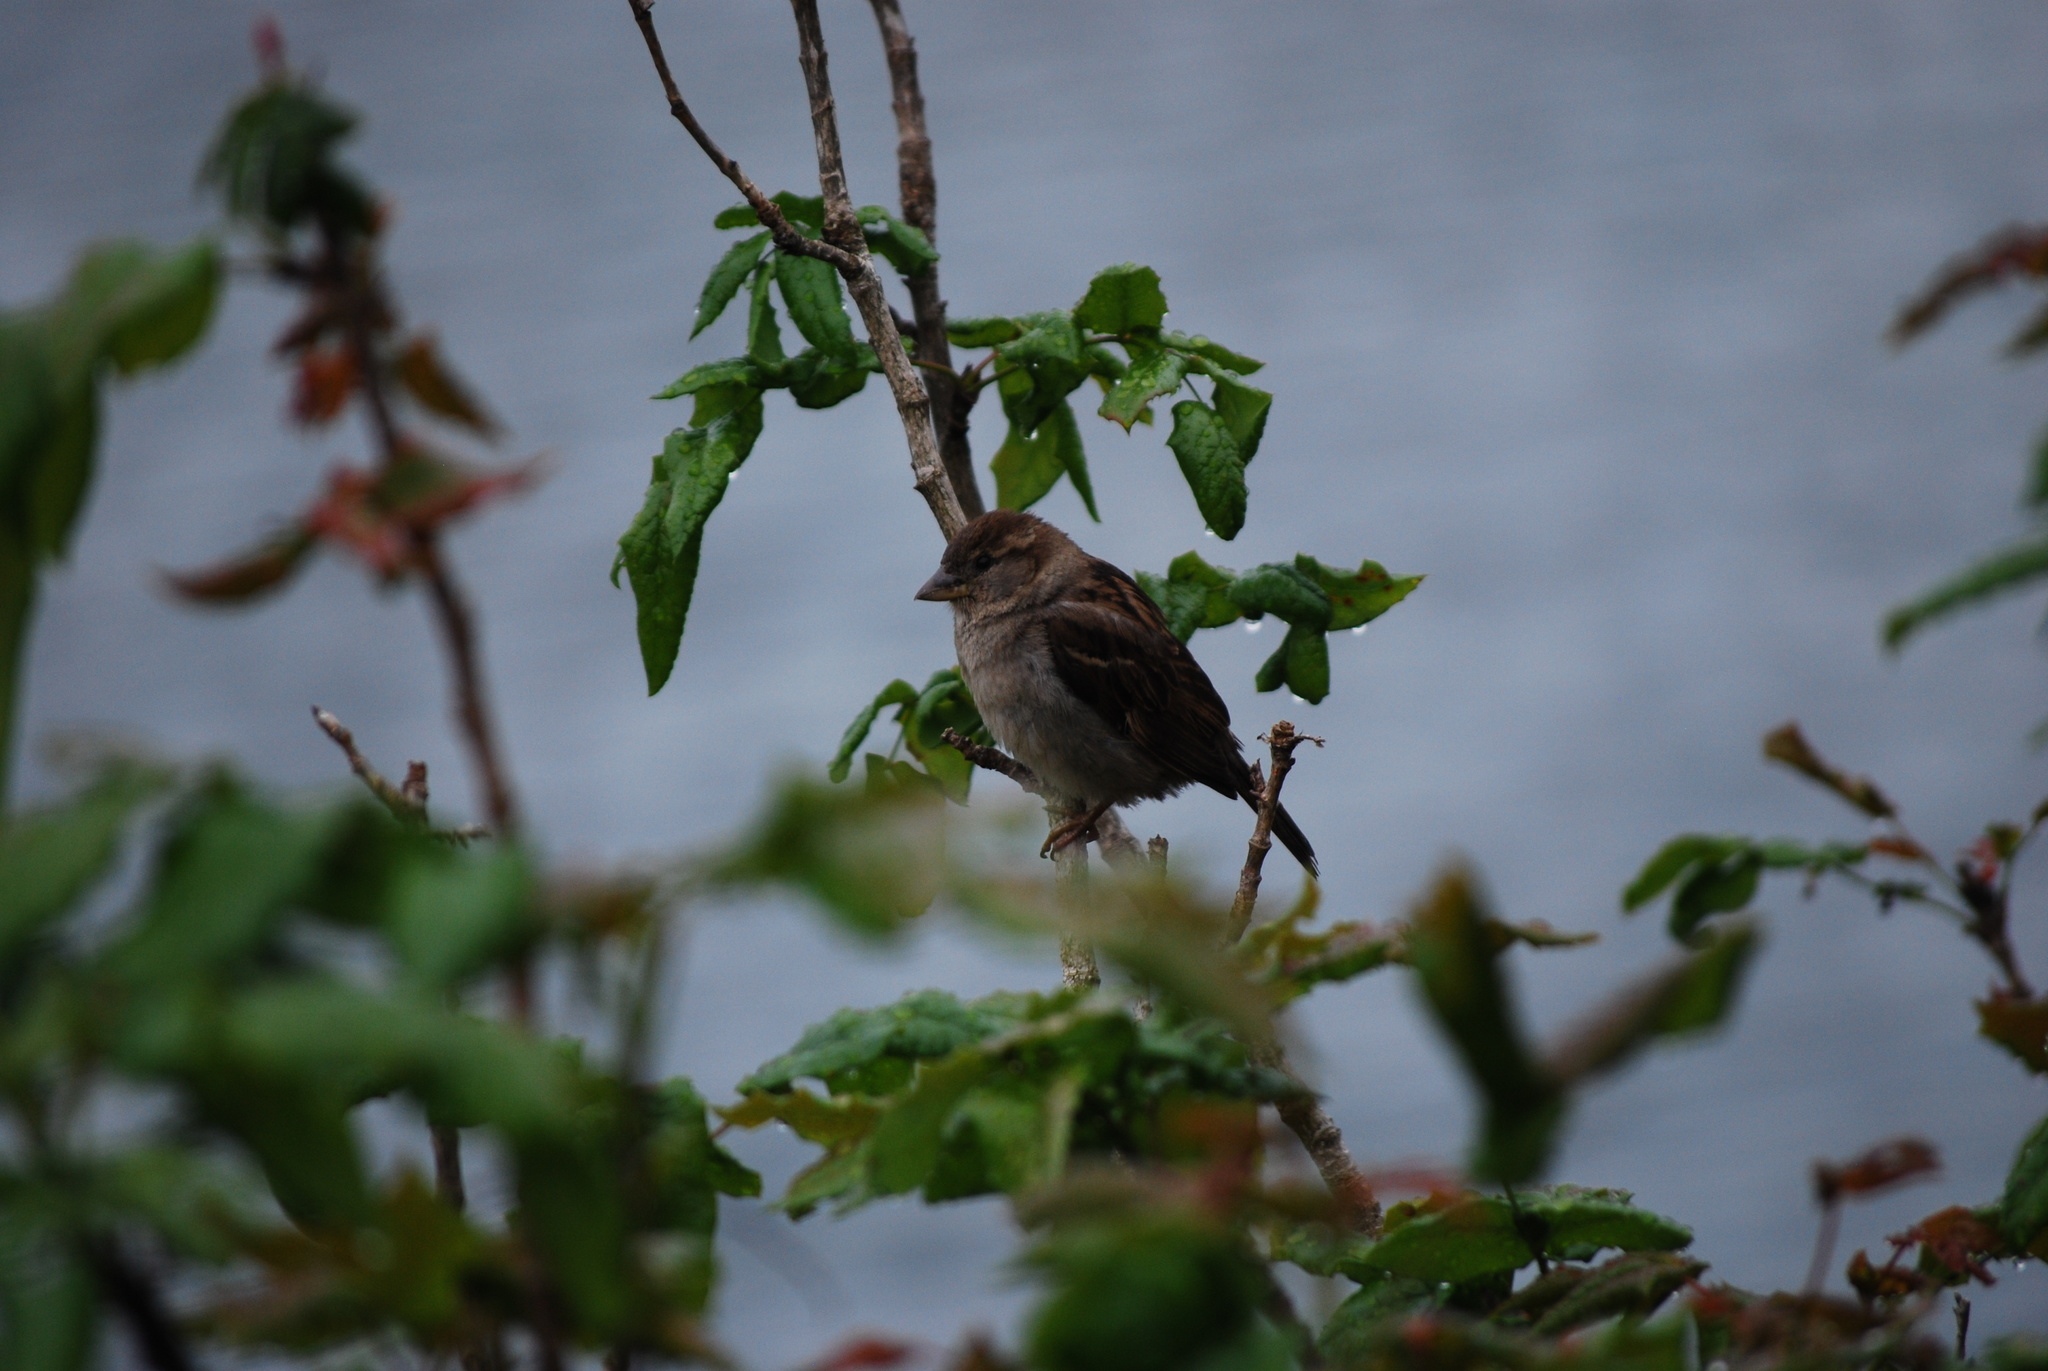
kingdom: Animalia
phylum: Chordata
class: Aves
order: Passeriformes
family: Passeridae
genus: Passer
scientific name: Passer domesticus
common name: House sparrow
